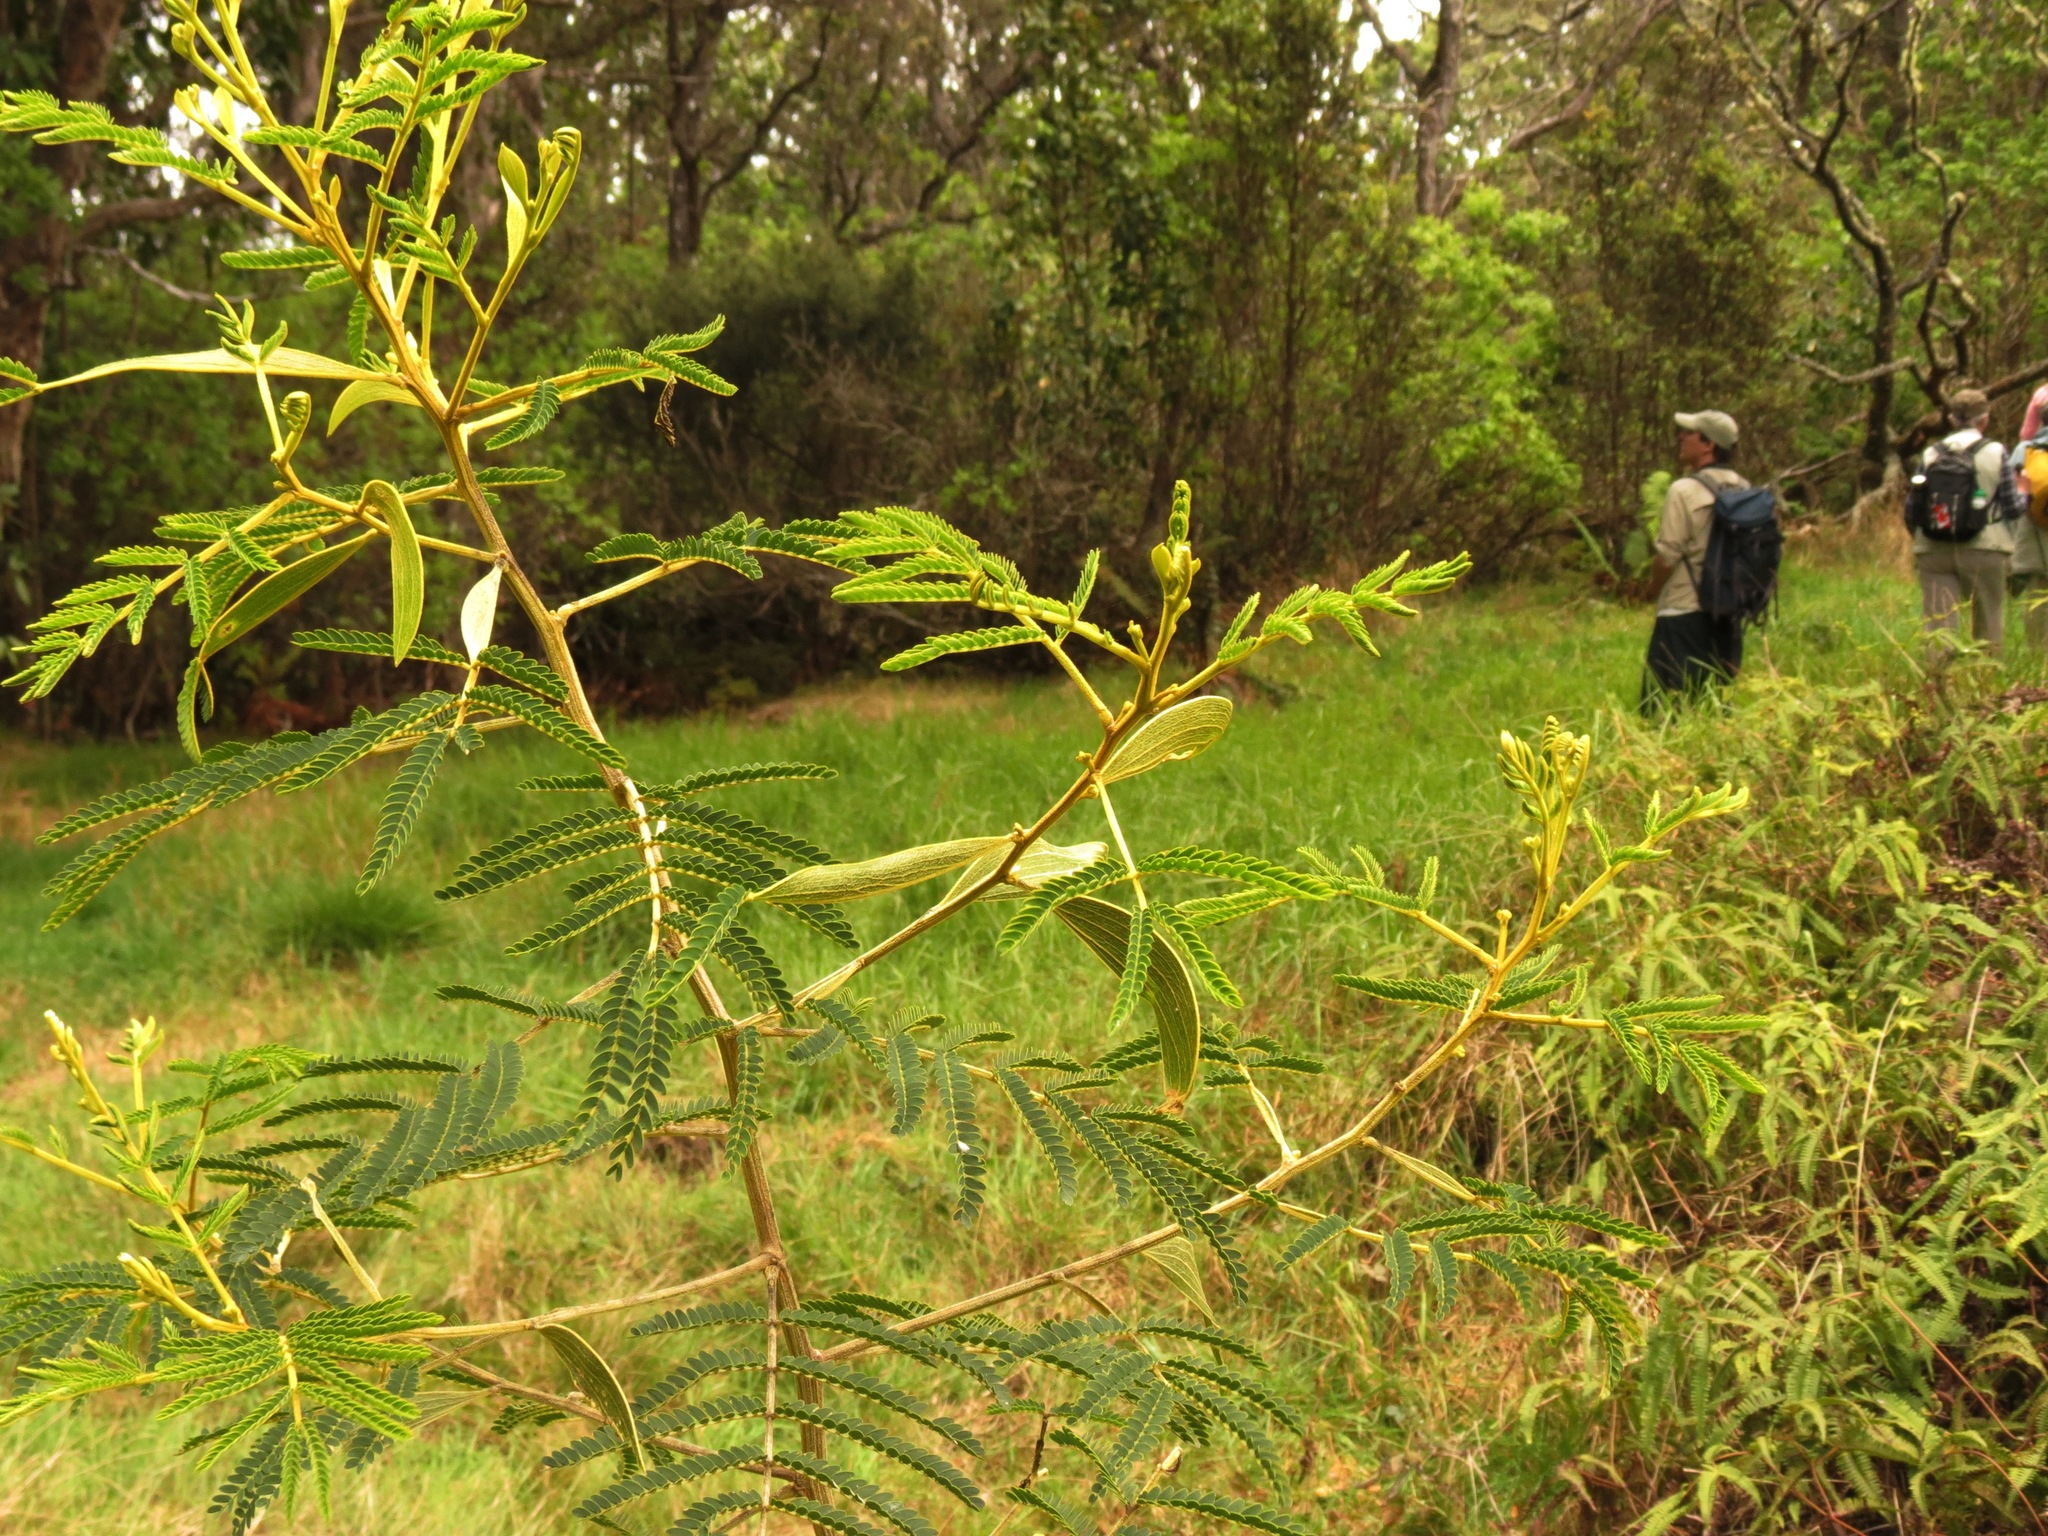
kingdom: Plantae
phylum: Tracheophyta
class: Magnoliopsida
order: Fabales
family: Fabaceae
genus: Acacia
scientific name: Acacia koa
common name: Gray koa
